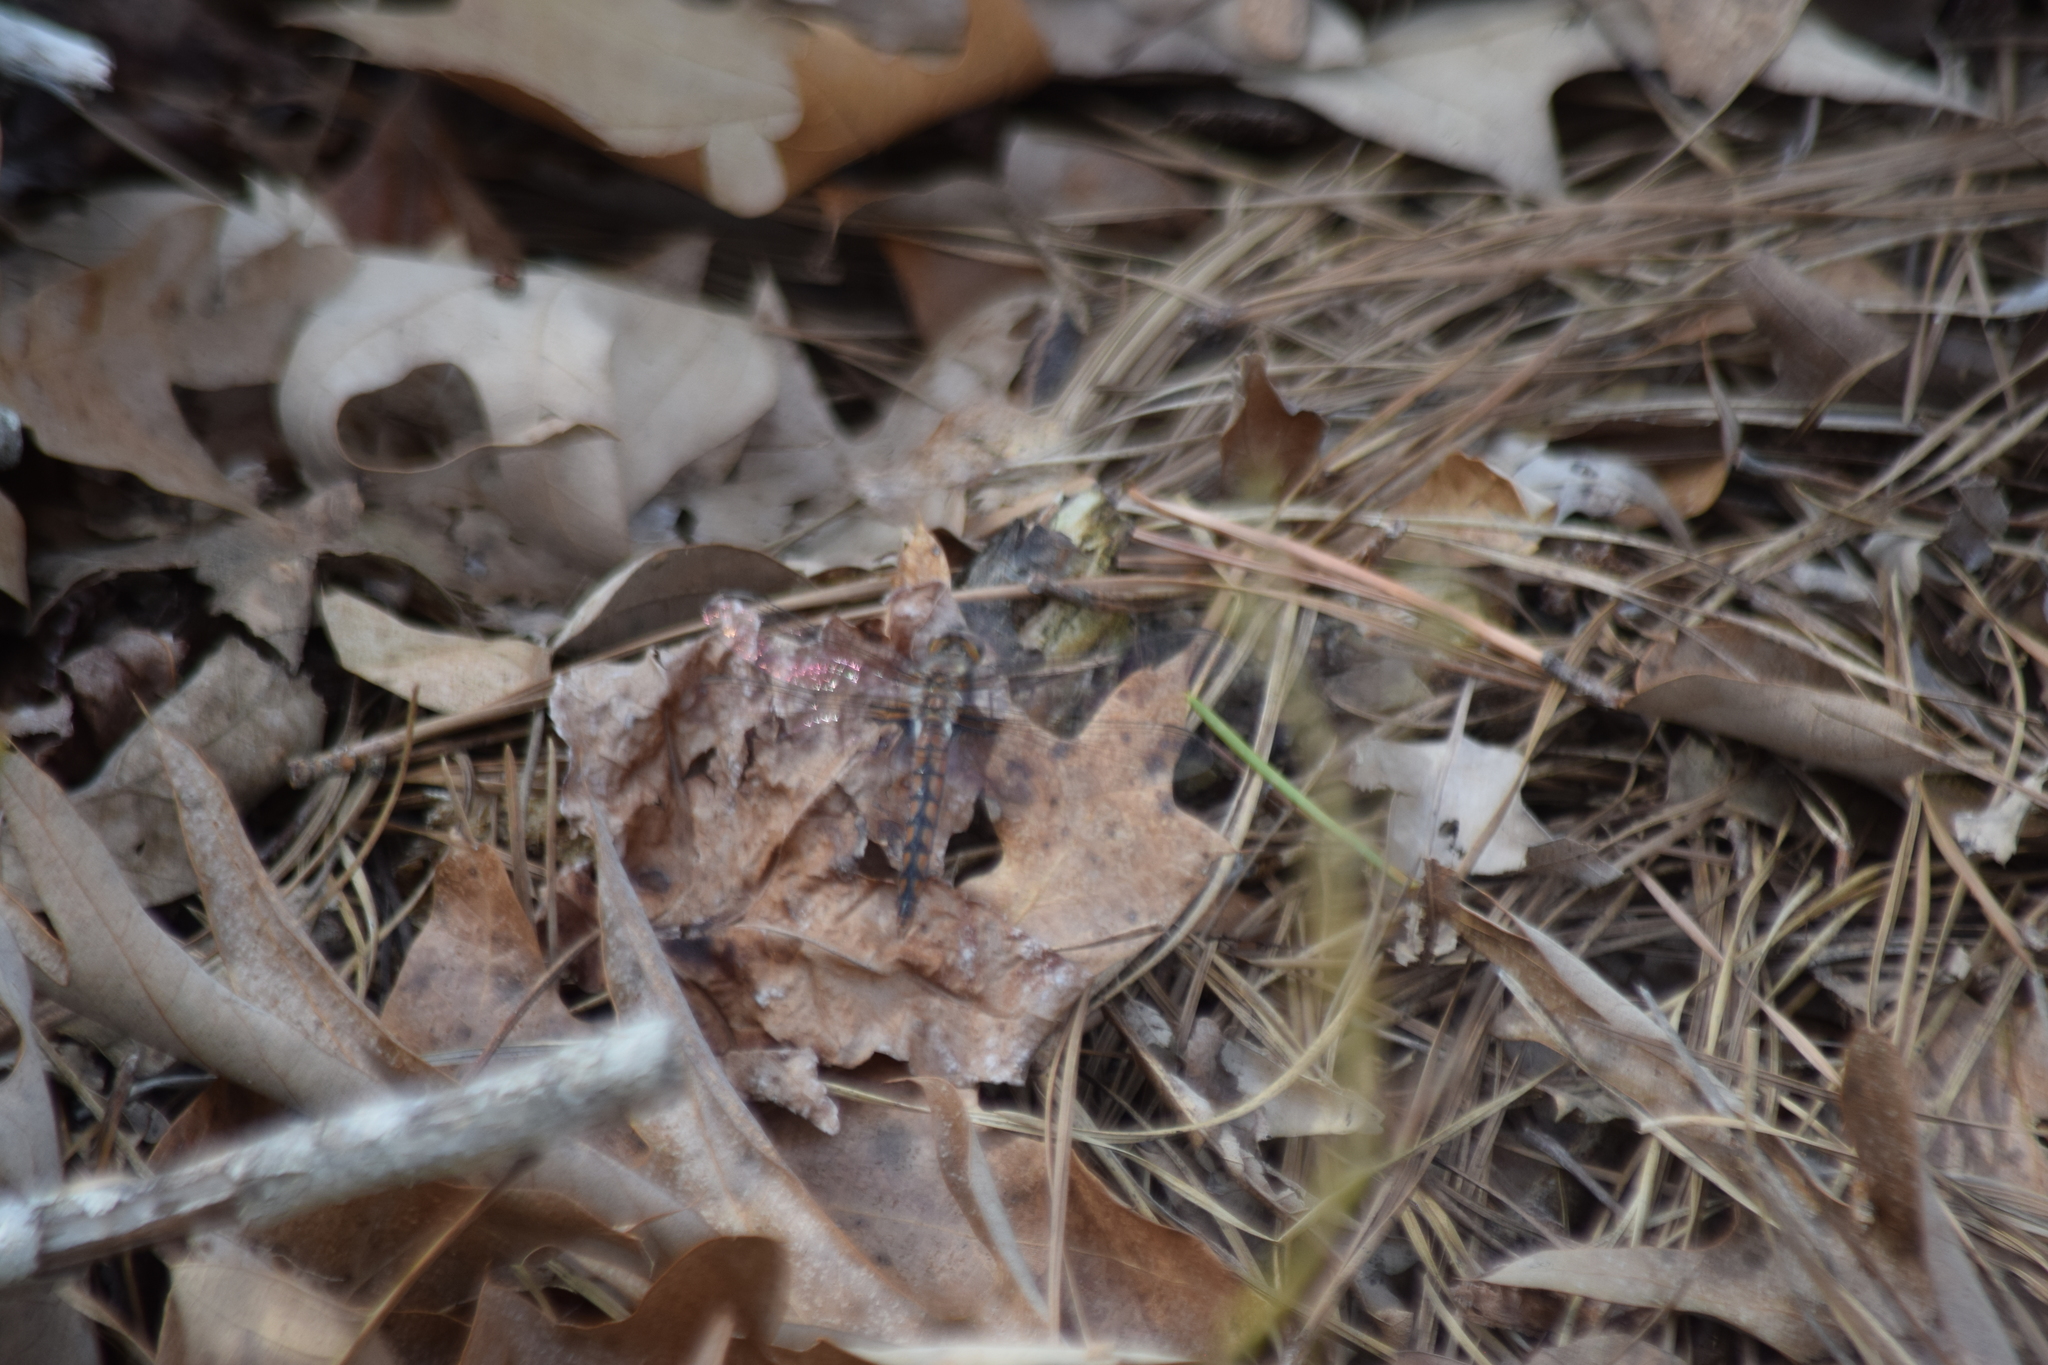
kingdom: Animalia
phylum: Arthropoda
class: Insecta
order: Odonata
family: Libellulidae
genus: Ladona
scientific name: Ladona deplanata
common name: Blue corporal
